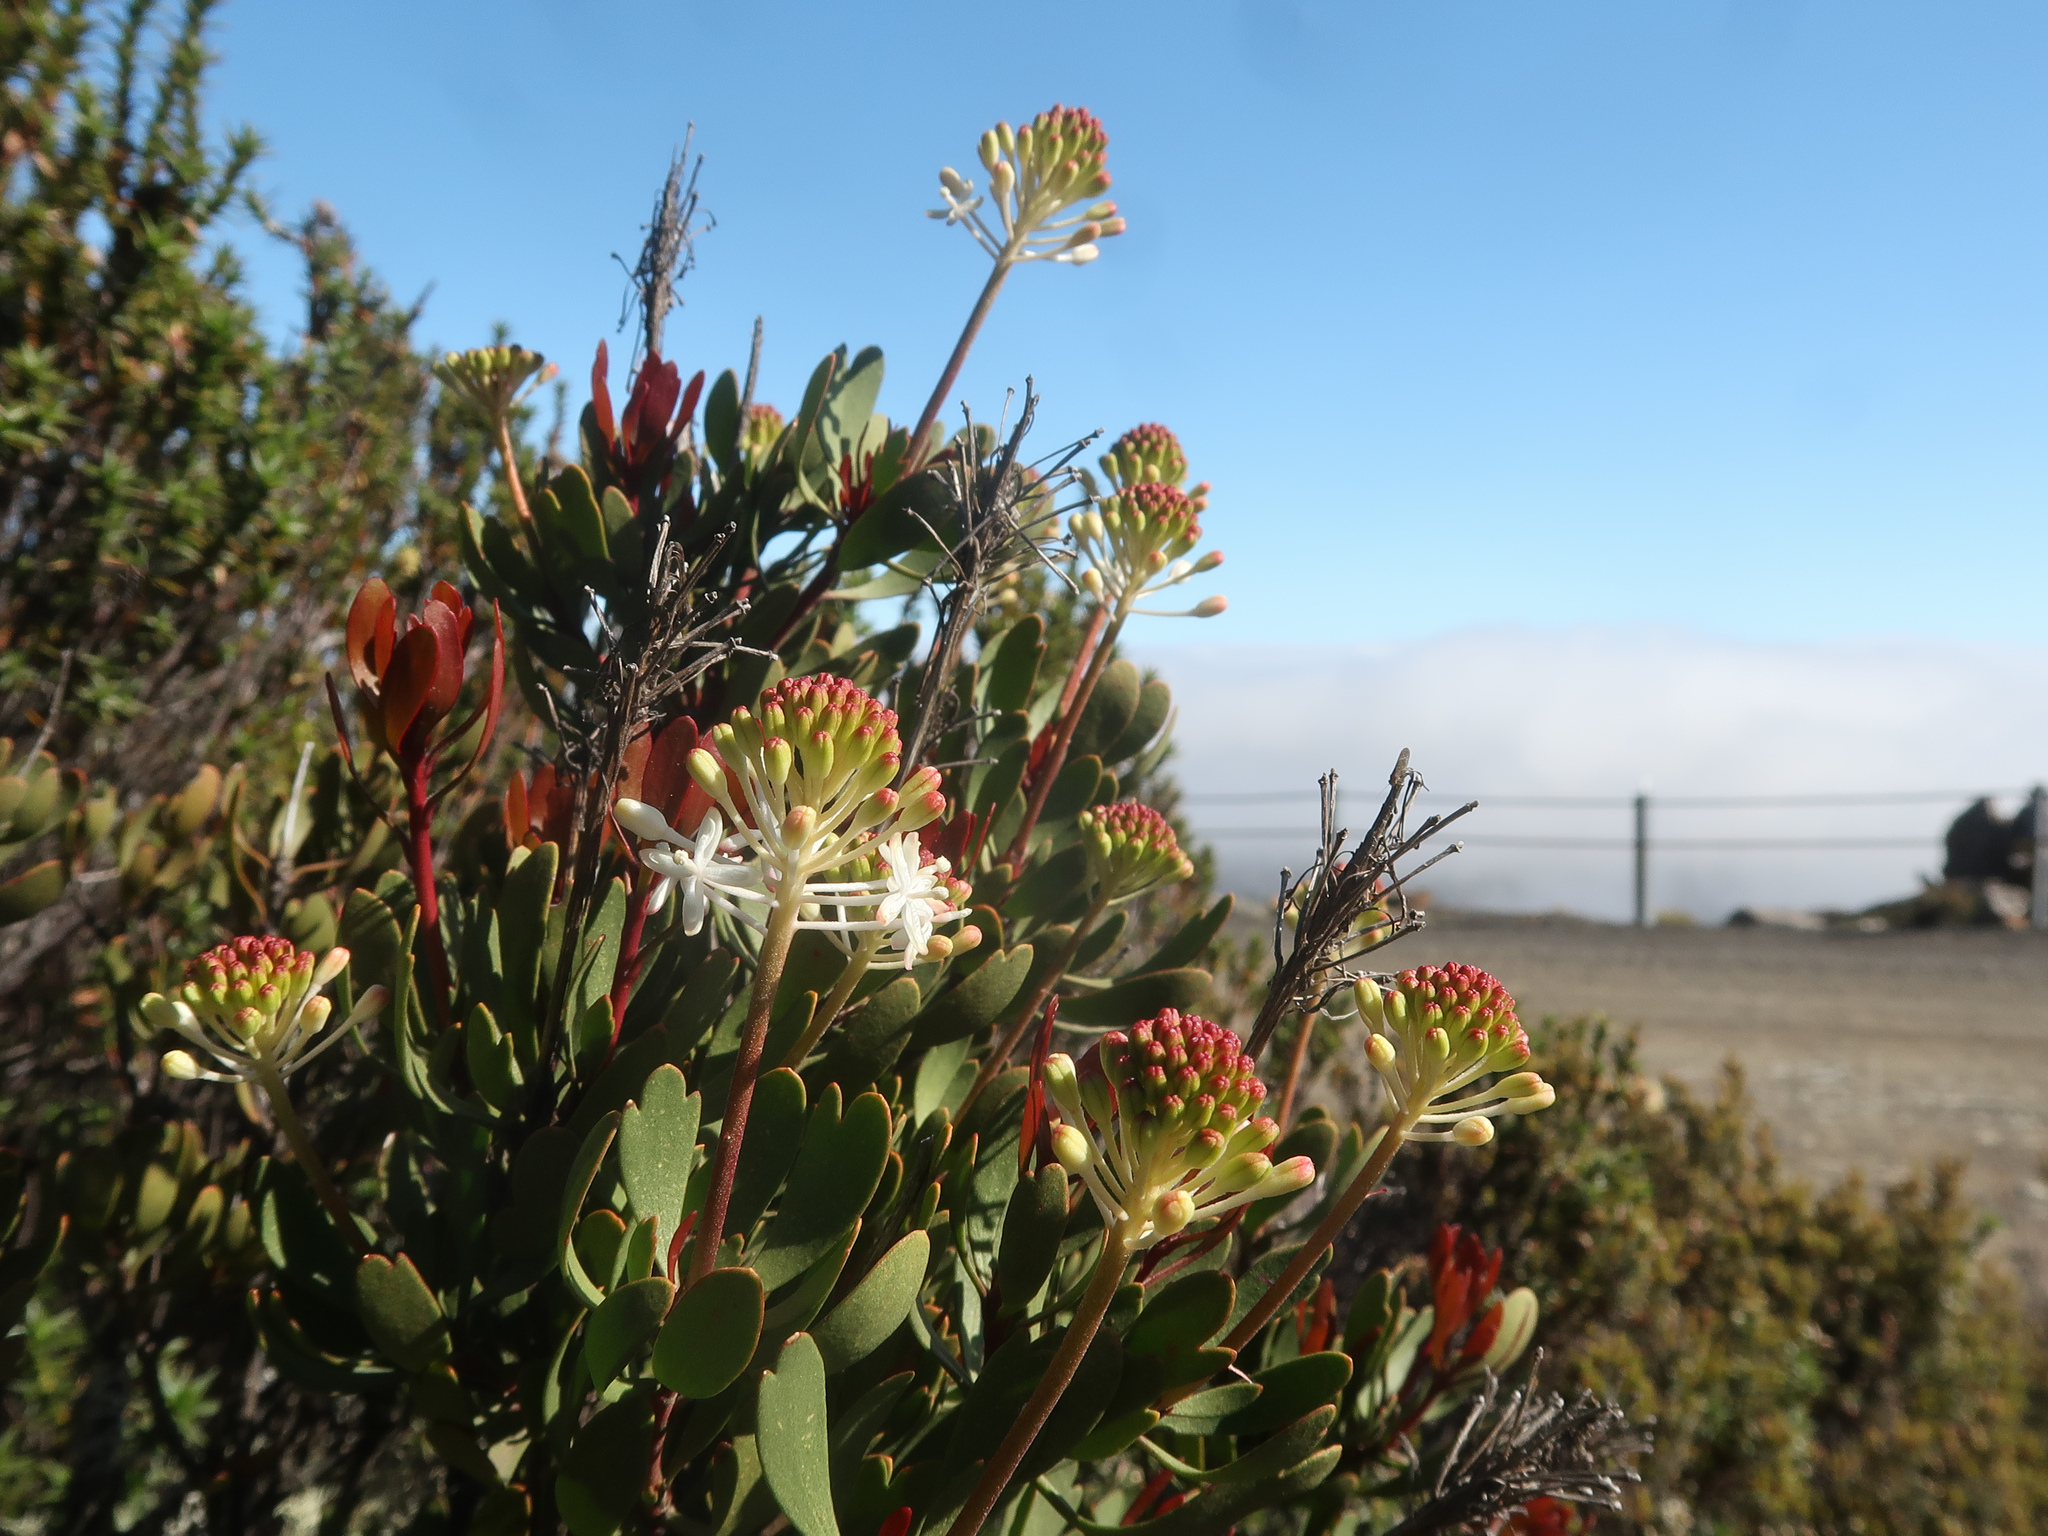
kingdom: Plantae
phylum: Tracheophyta
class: Magnoliopsida
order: Proteales
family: Proteaceae
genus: Bellendena
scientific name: Bellendena montana
